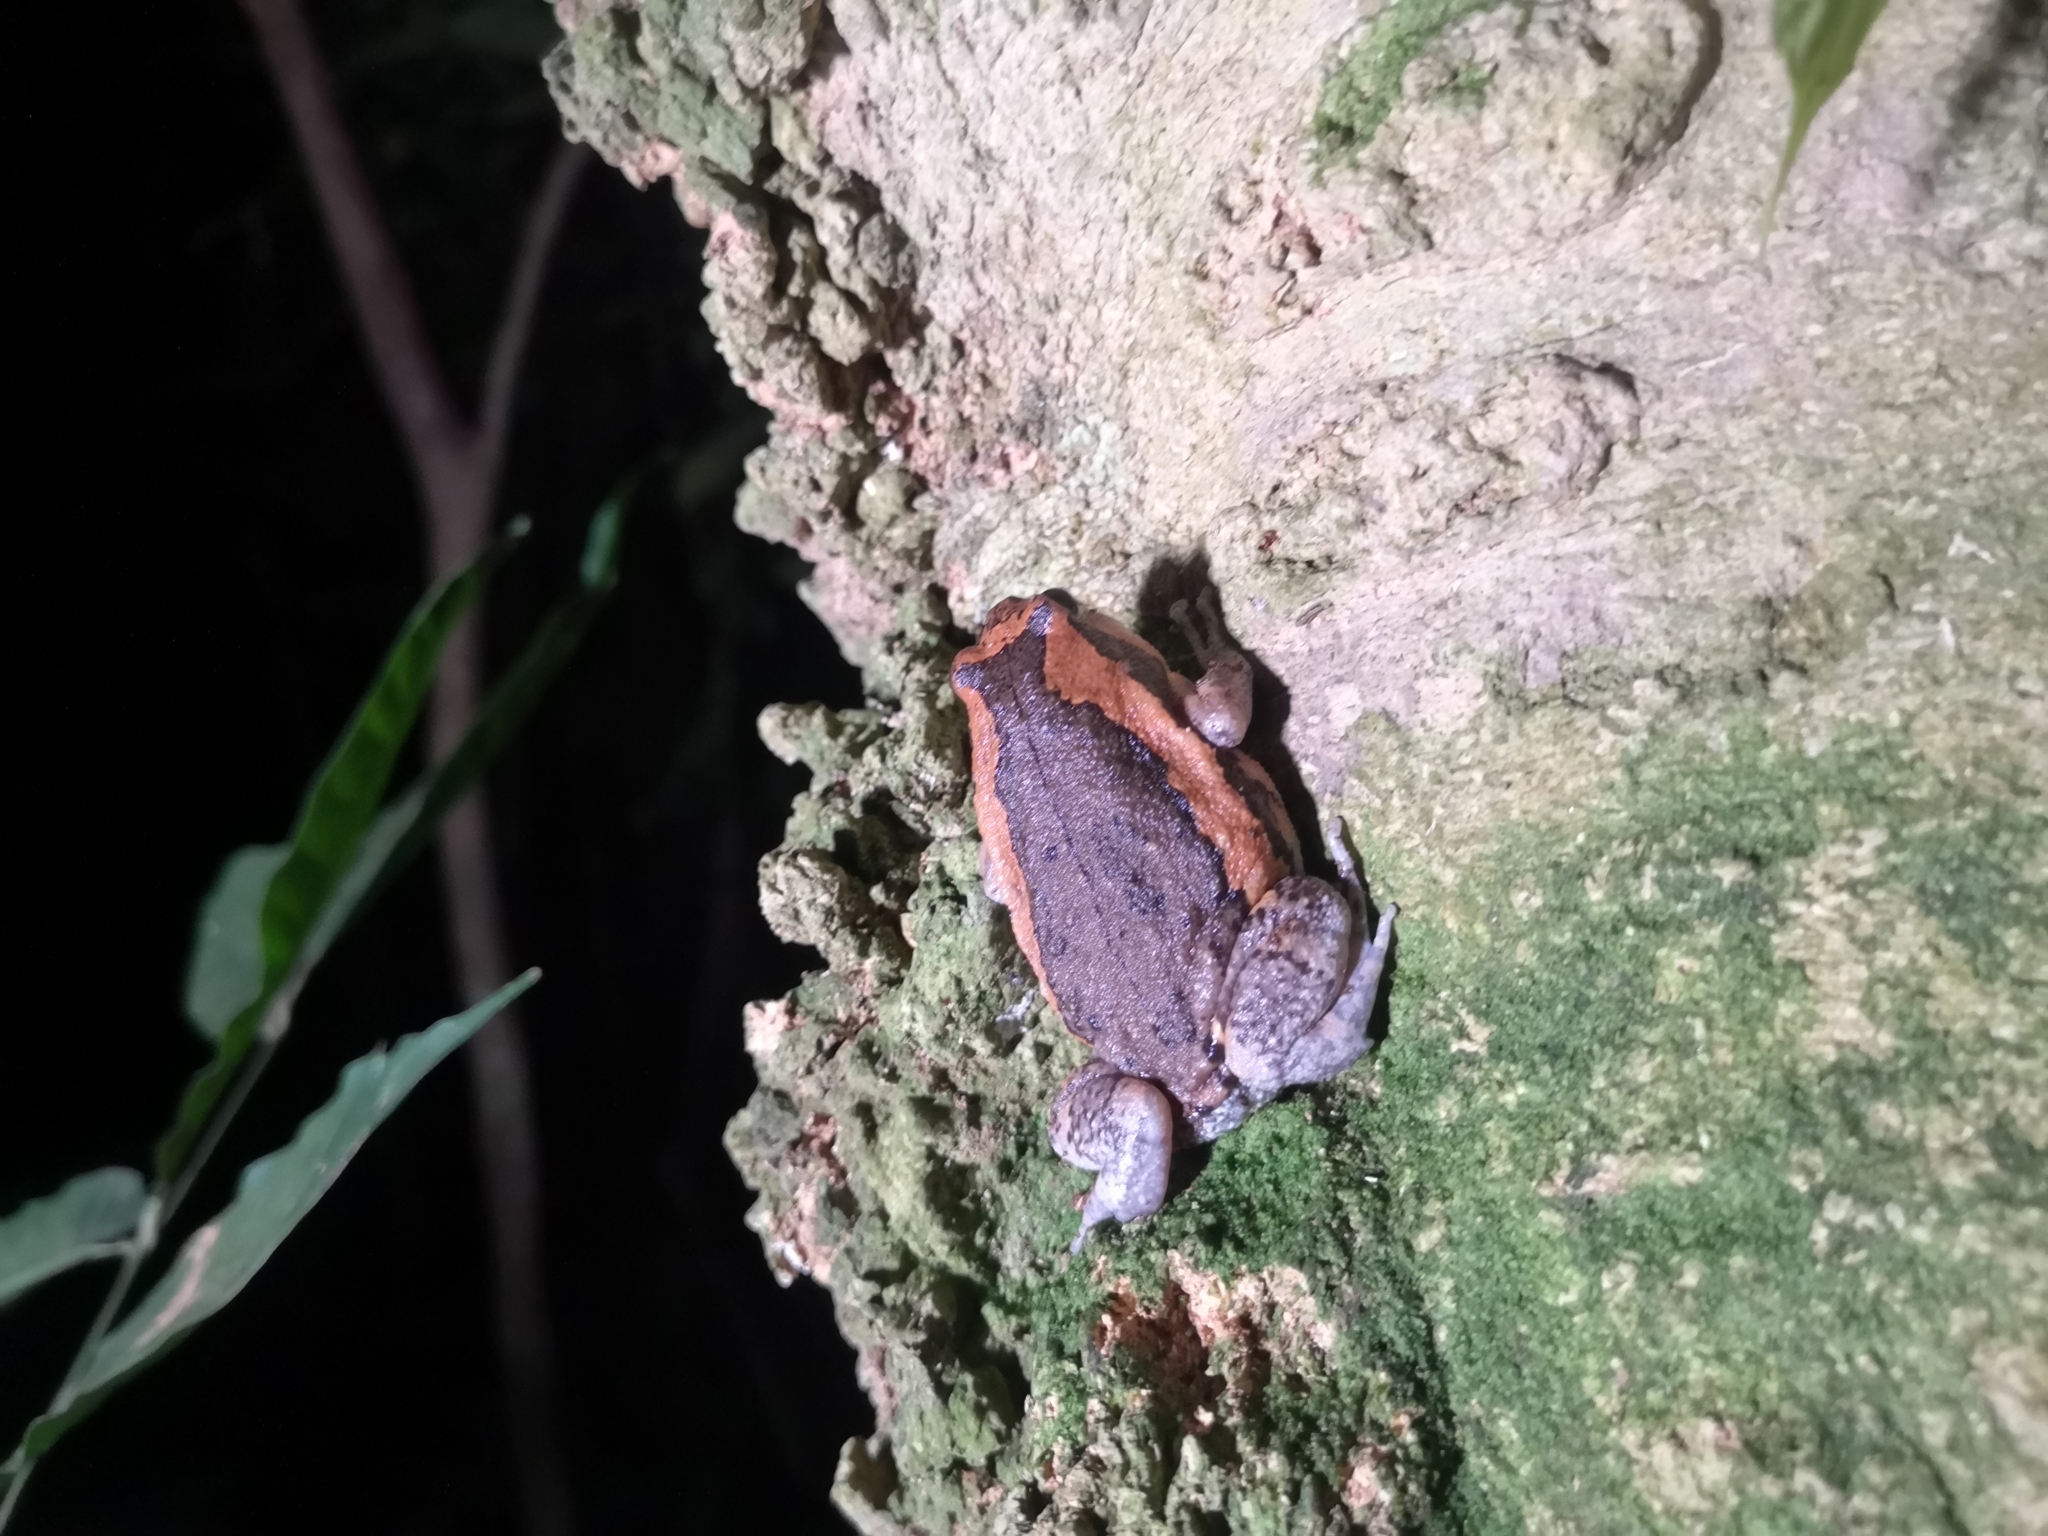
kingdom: Animalia
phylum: Chordata
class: Amphibia
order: Anura
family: Microhylidae
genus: Kaloula
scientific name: Kaloula pulchra
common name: Common,banded bullfrog
